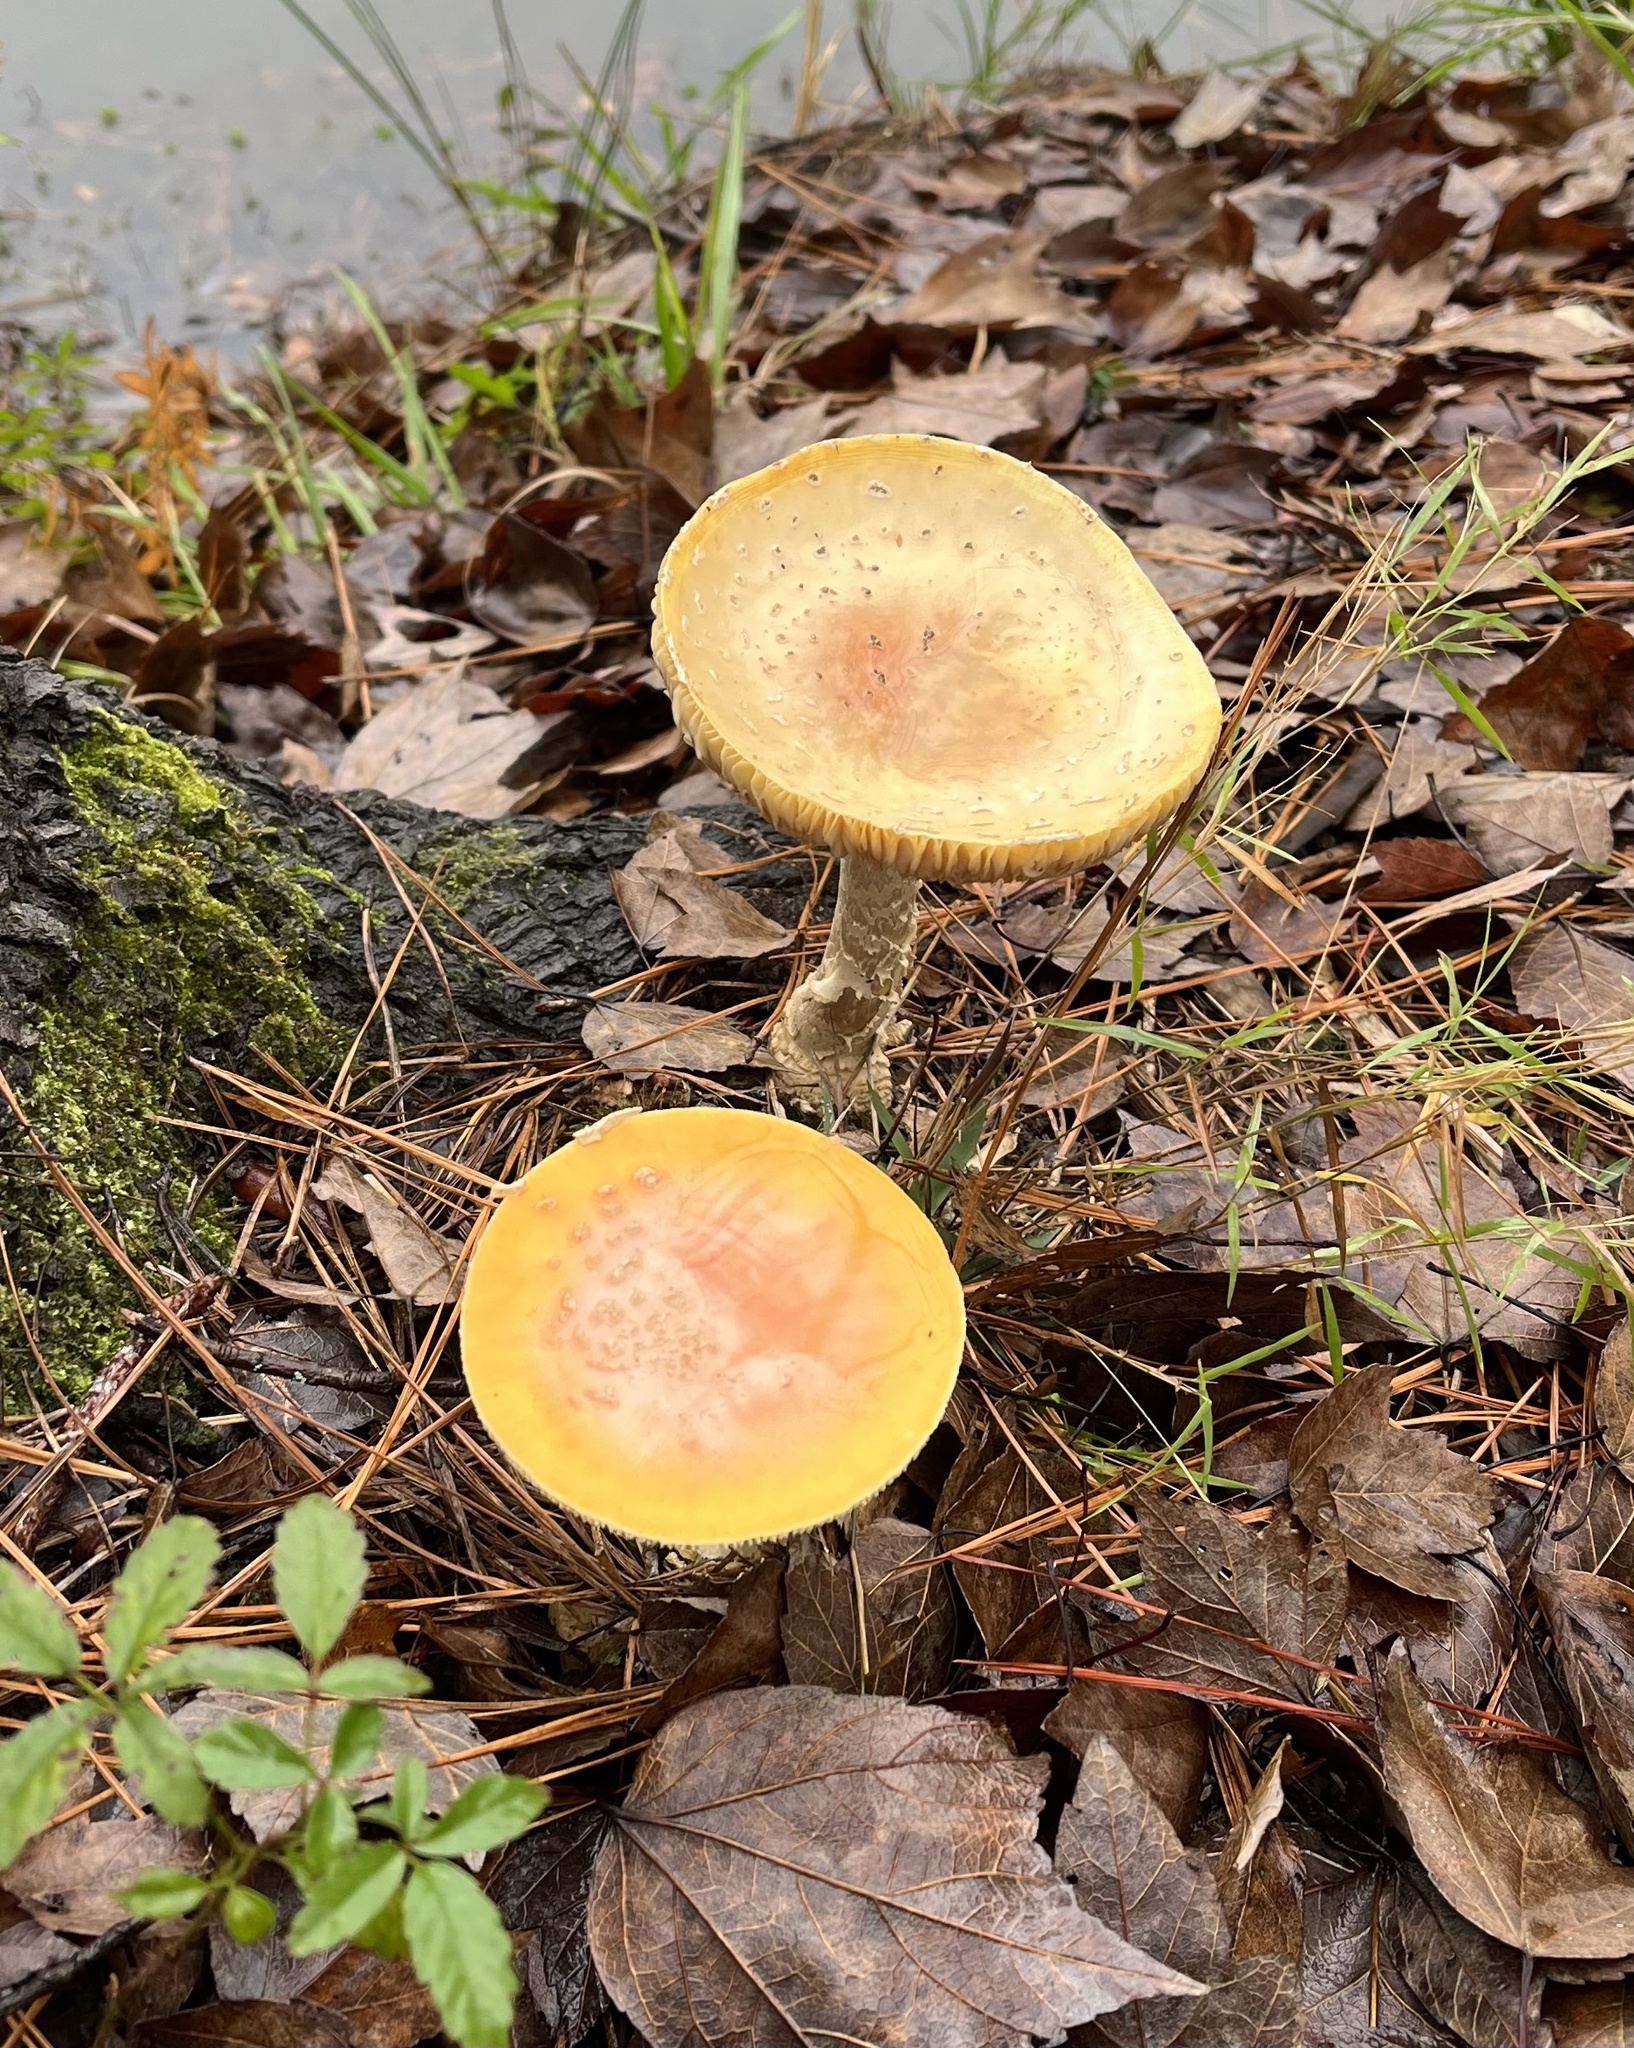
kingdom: Fungi
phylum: Basidiomycota
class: Agaricomycetes
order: Agaricales
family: Amanitaceae
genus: Amanita
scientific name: Amanita persicina
